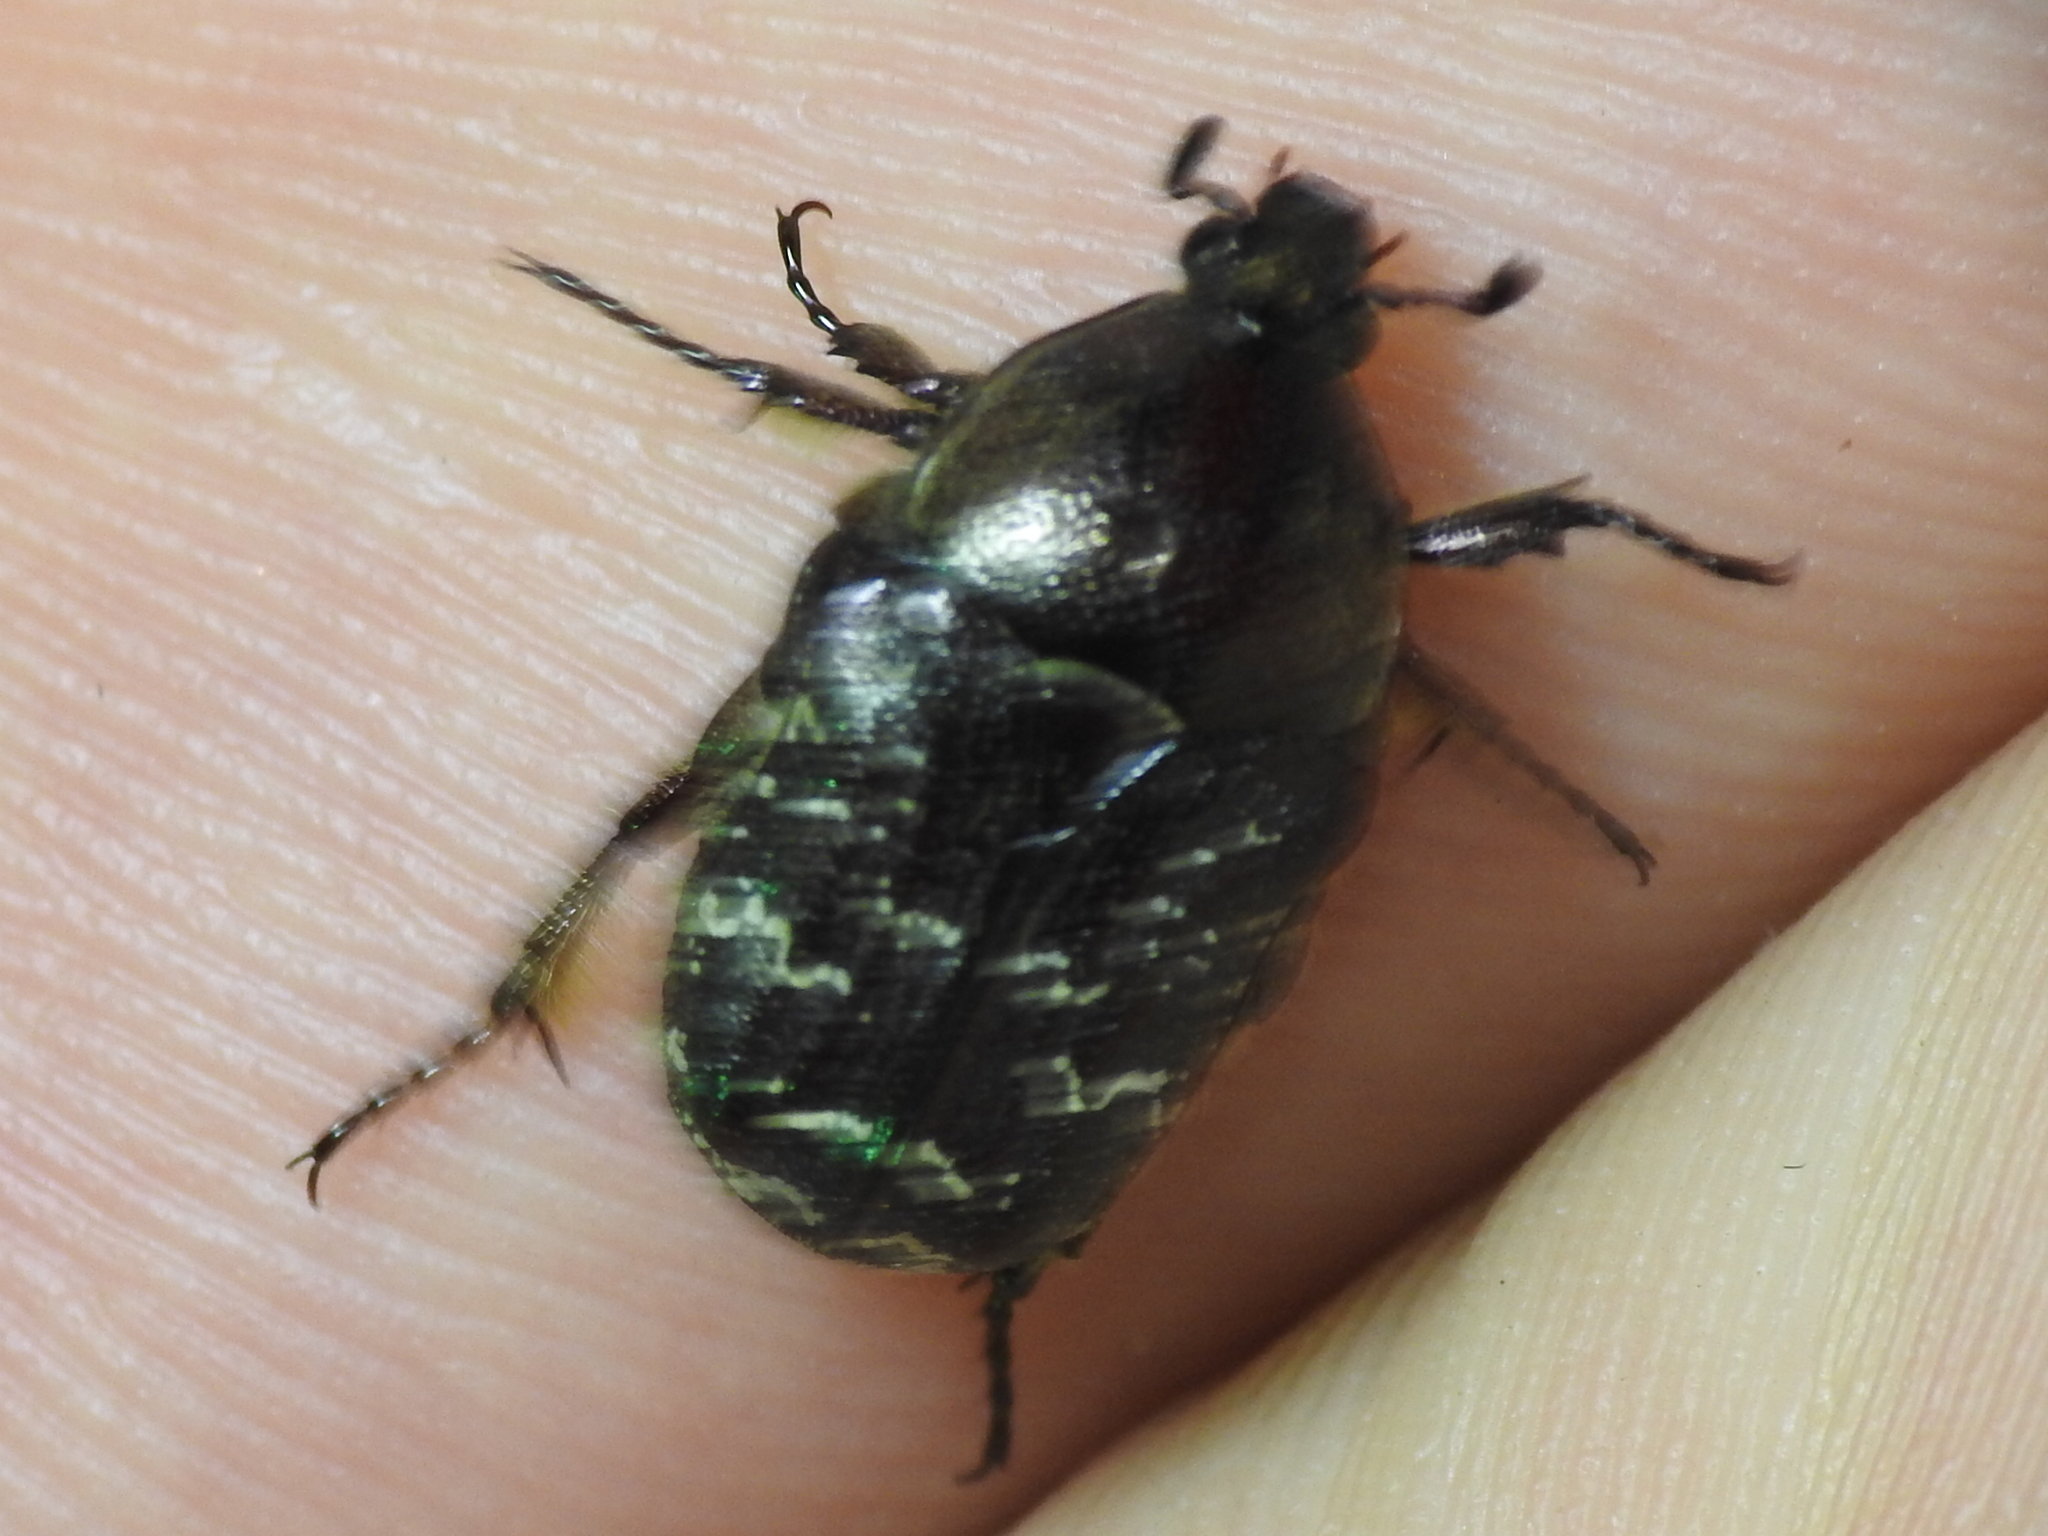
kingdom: Animalia
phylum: Arthropoda
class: Insecta
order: Coleoptera
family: Scarabaeidae
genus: Euphoria
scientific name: Euphoria sepulcralis
